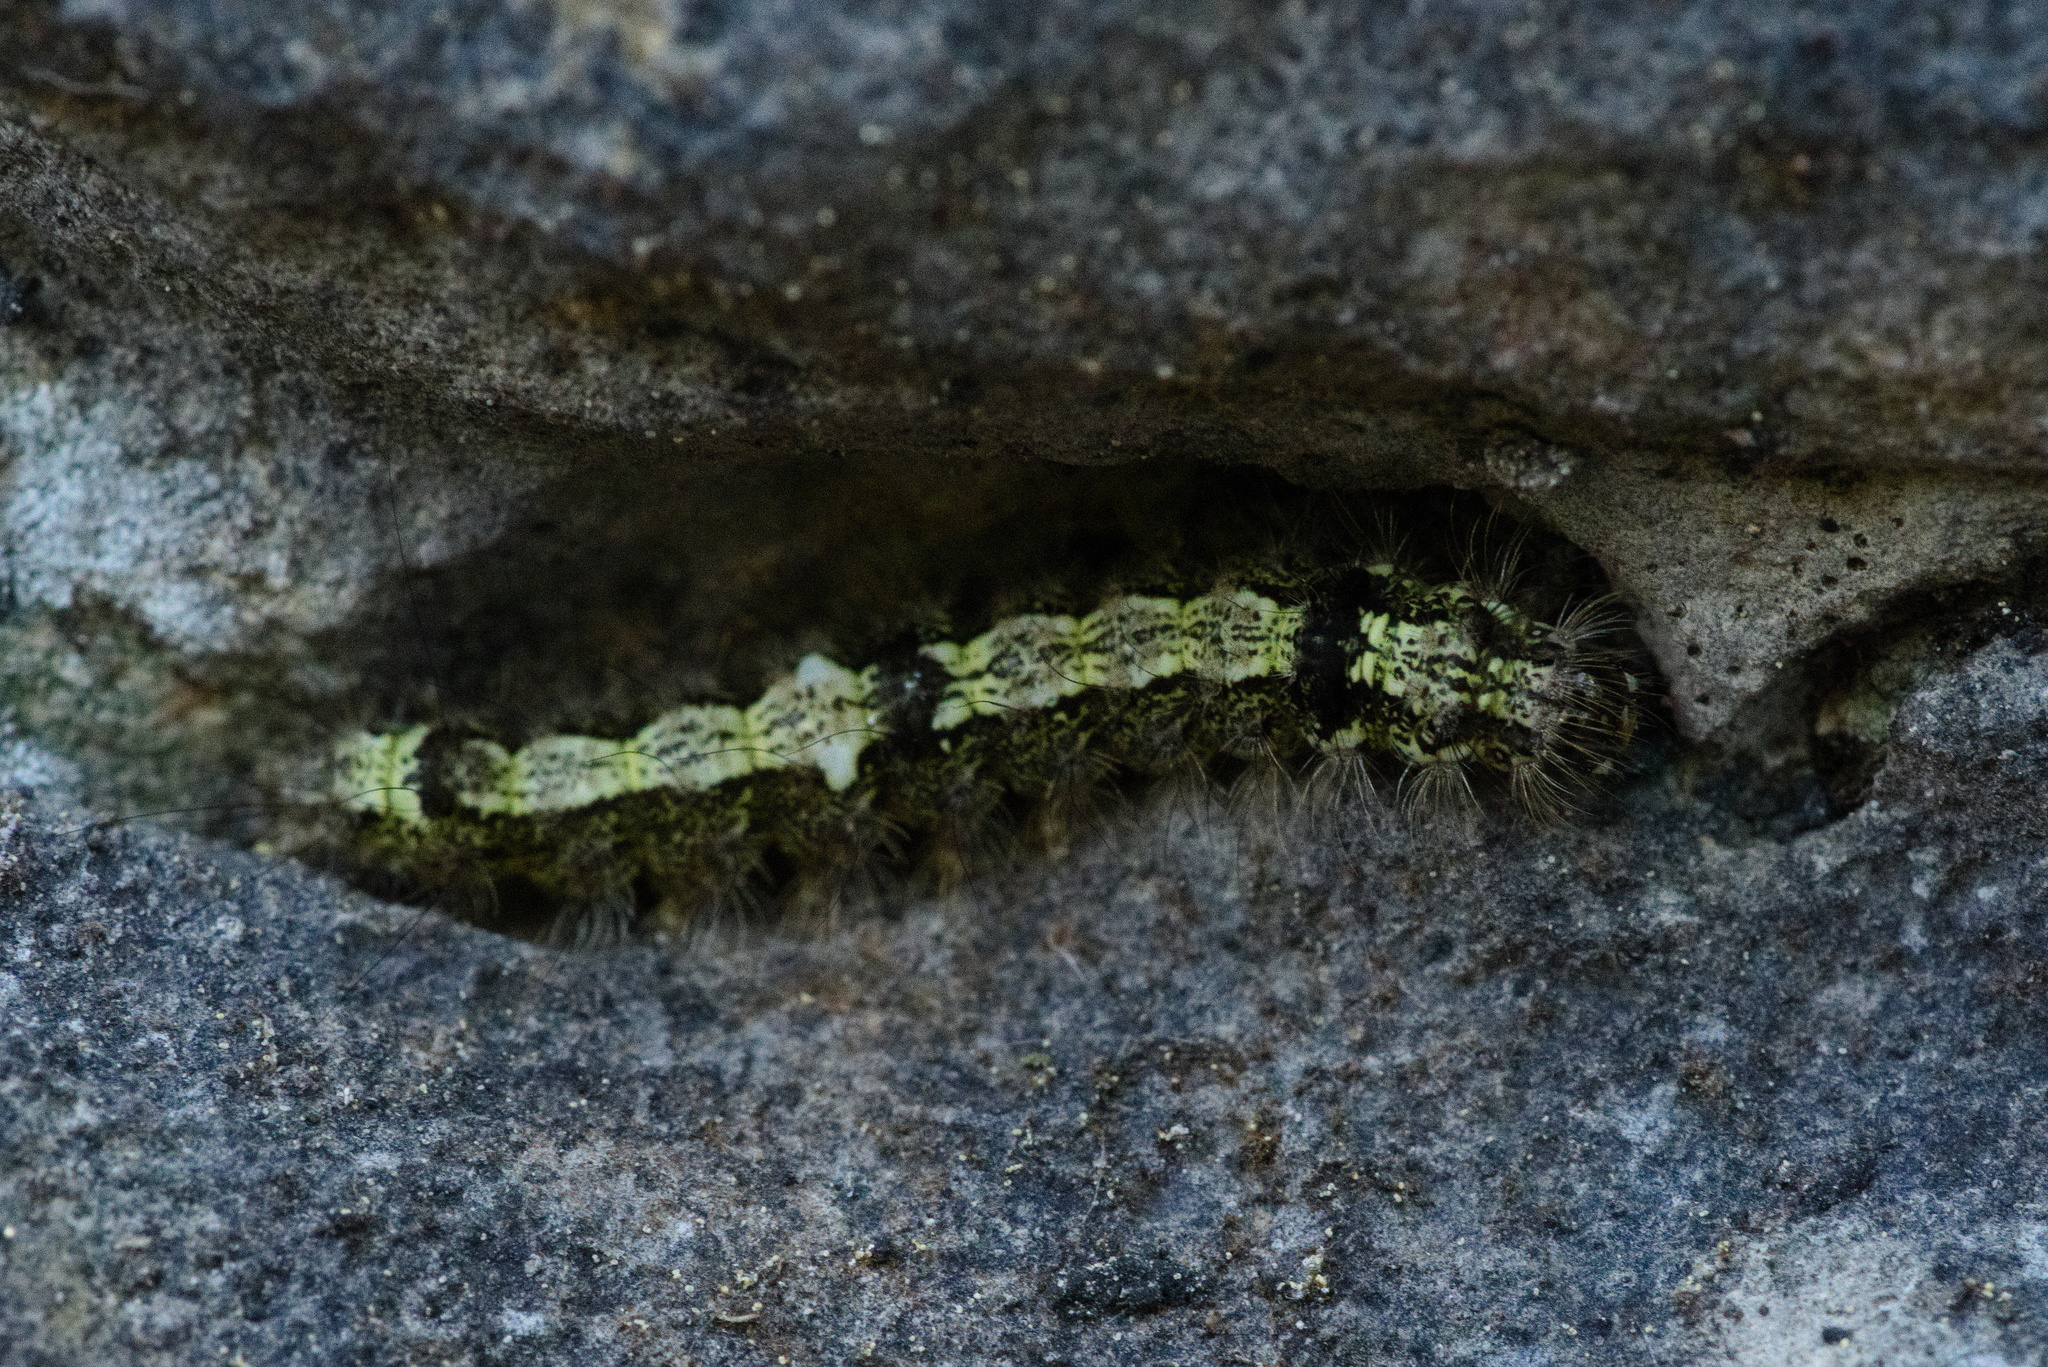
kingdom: Animalia
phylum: Arthropoda
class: Insecta
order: Lepidoptera
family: Erebidae
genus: Katha
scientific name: Katha depressa
